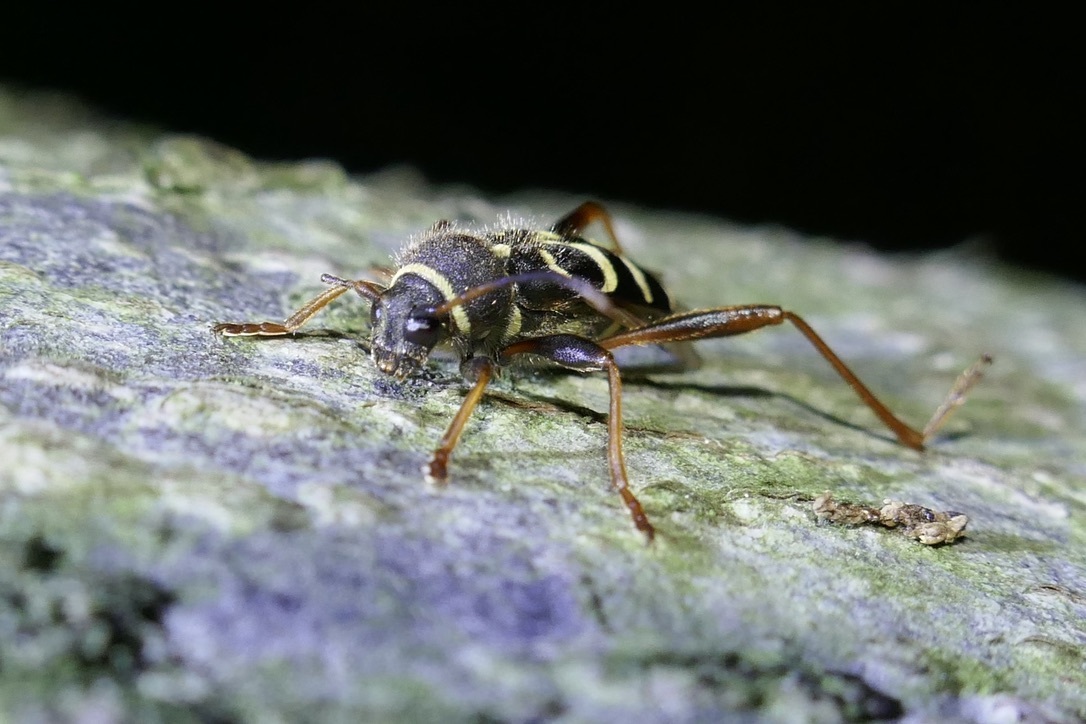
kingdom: Animalia
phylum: Arthropoda
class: Insecta
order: Coleoptera
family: Cerambycidae
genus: Clytus
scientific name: Clytus arietis
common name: Wasp beetle
